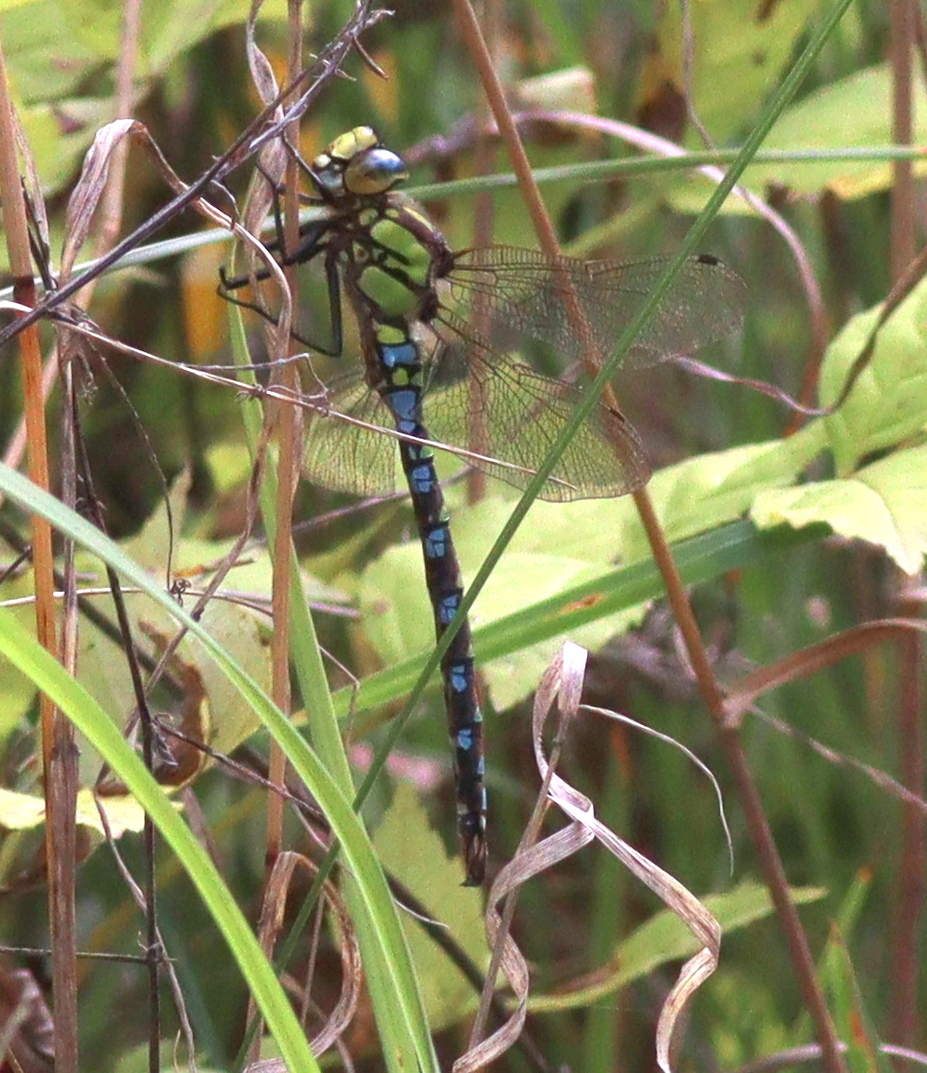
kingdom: Animalia
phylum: Arthropoda
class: Insecta
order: Odonata
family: Aeshnidae
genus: Aeshna
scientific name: Aeshna cyanea
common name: Southern hawker
